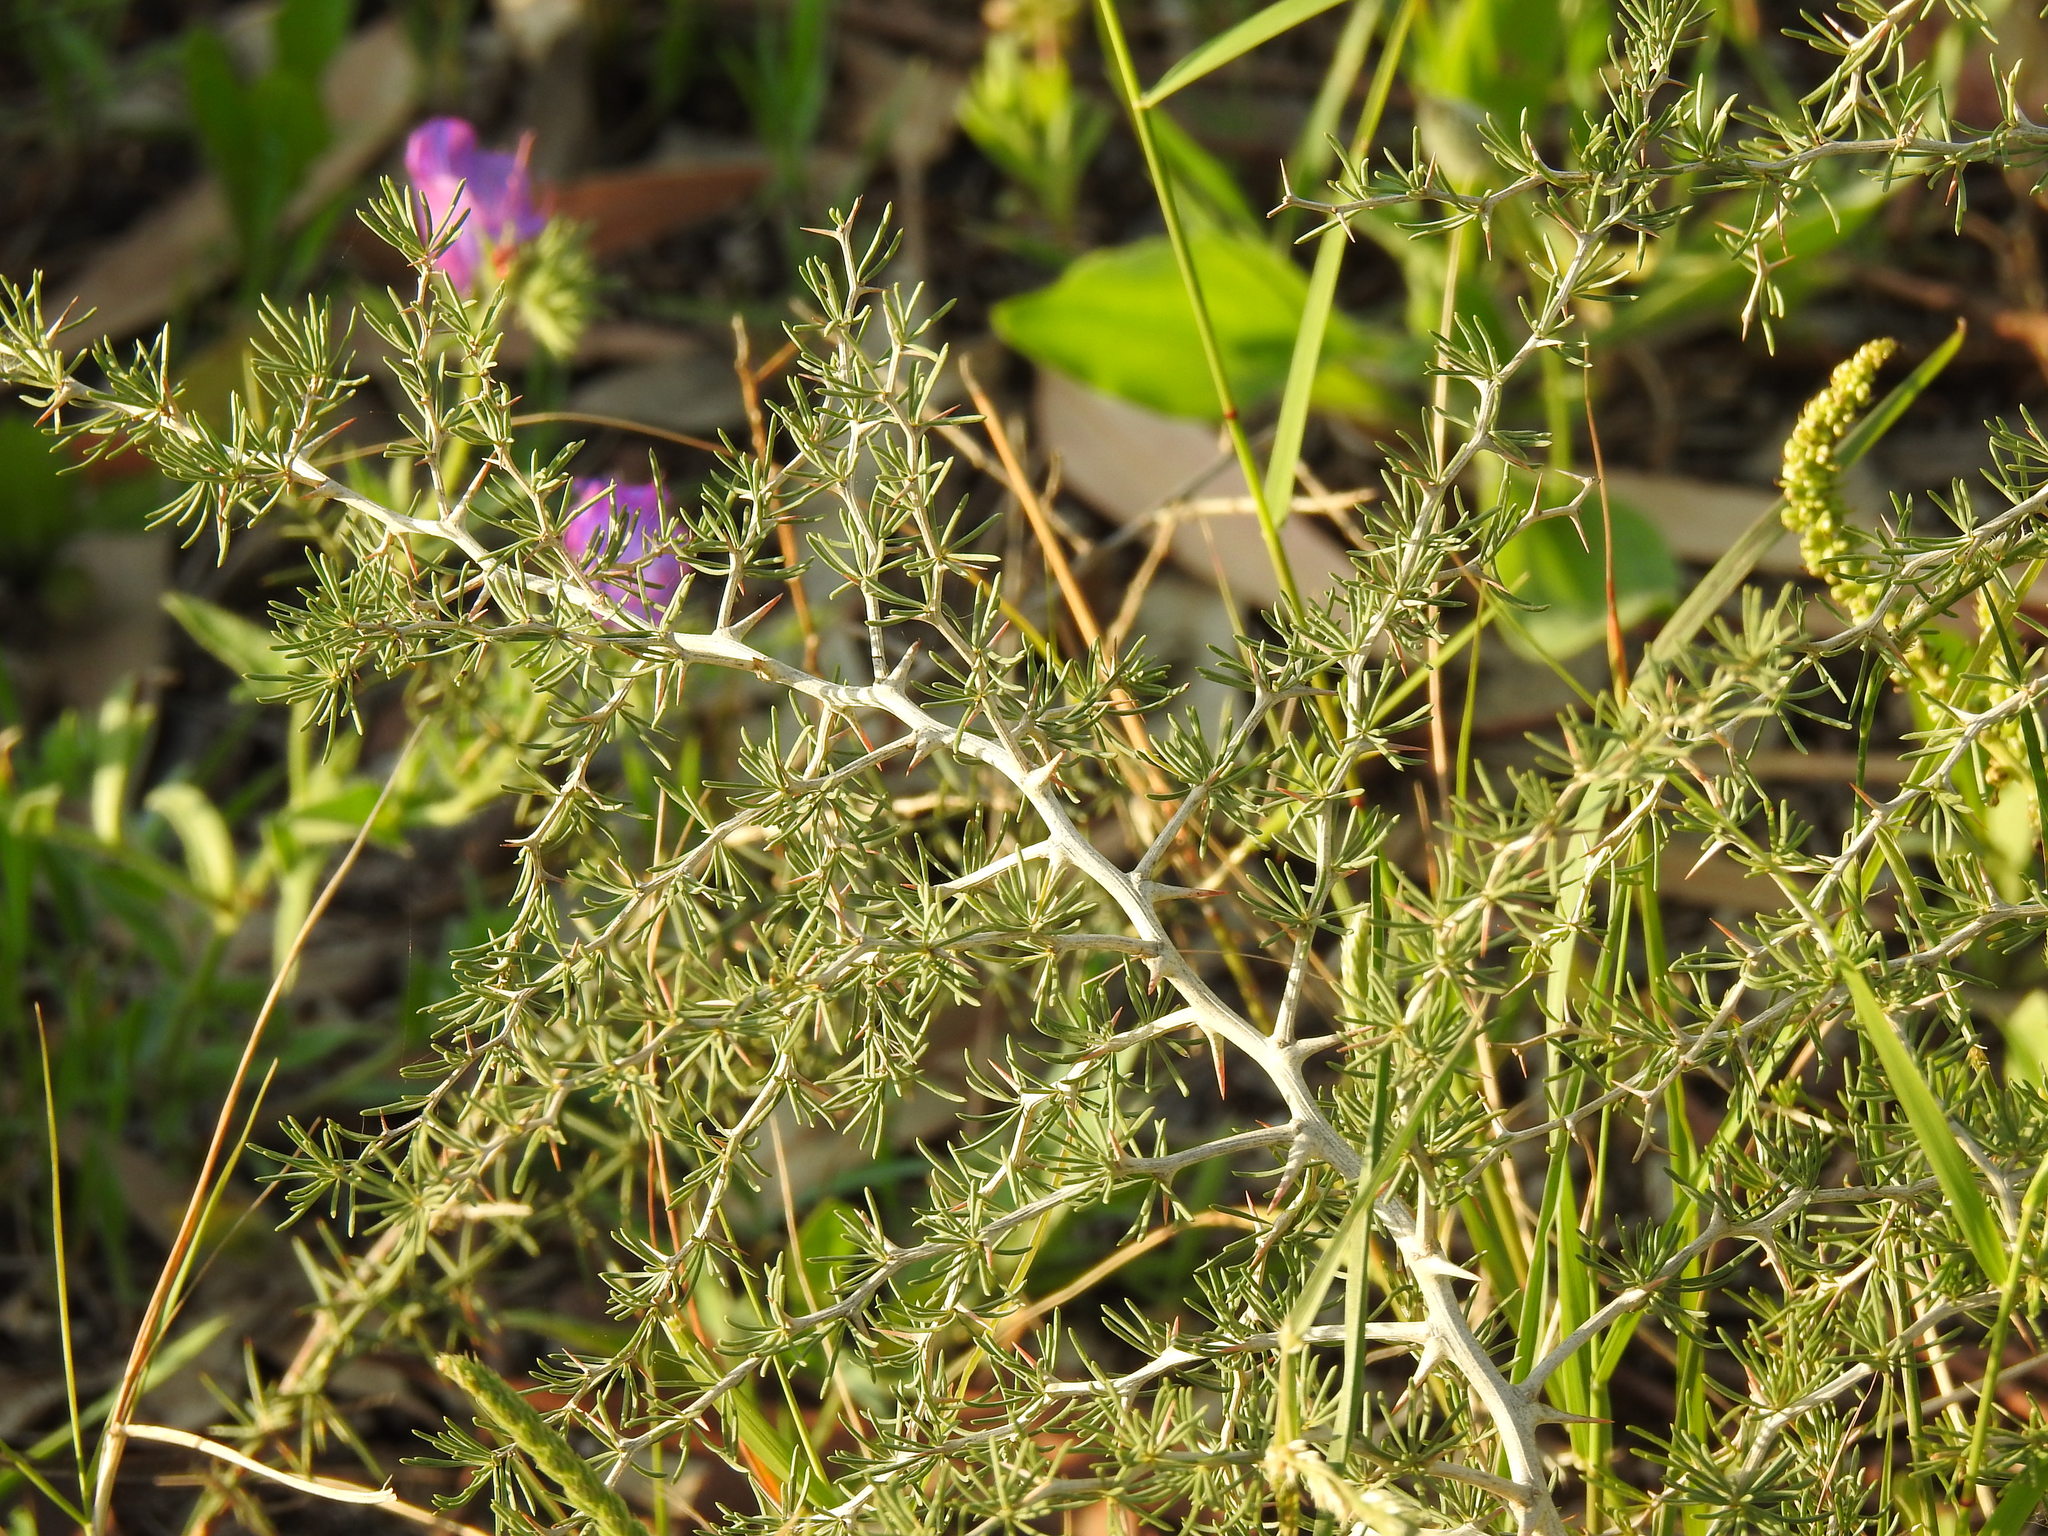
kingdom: Plantae
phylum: Tracheophyta
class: Liliopsida
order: Asparagales
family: Asparagaceae
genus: Asparagus
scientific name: Asparagus albus
